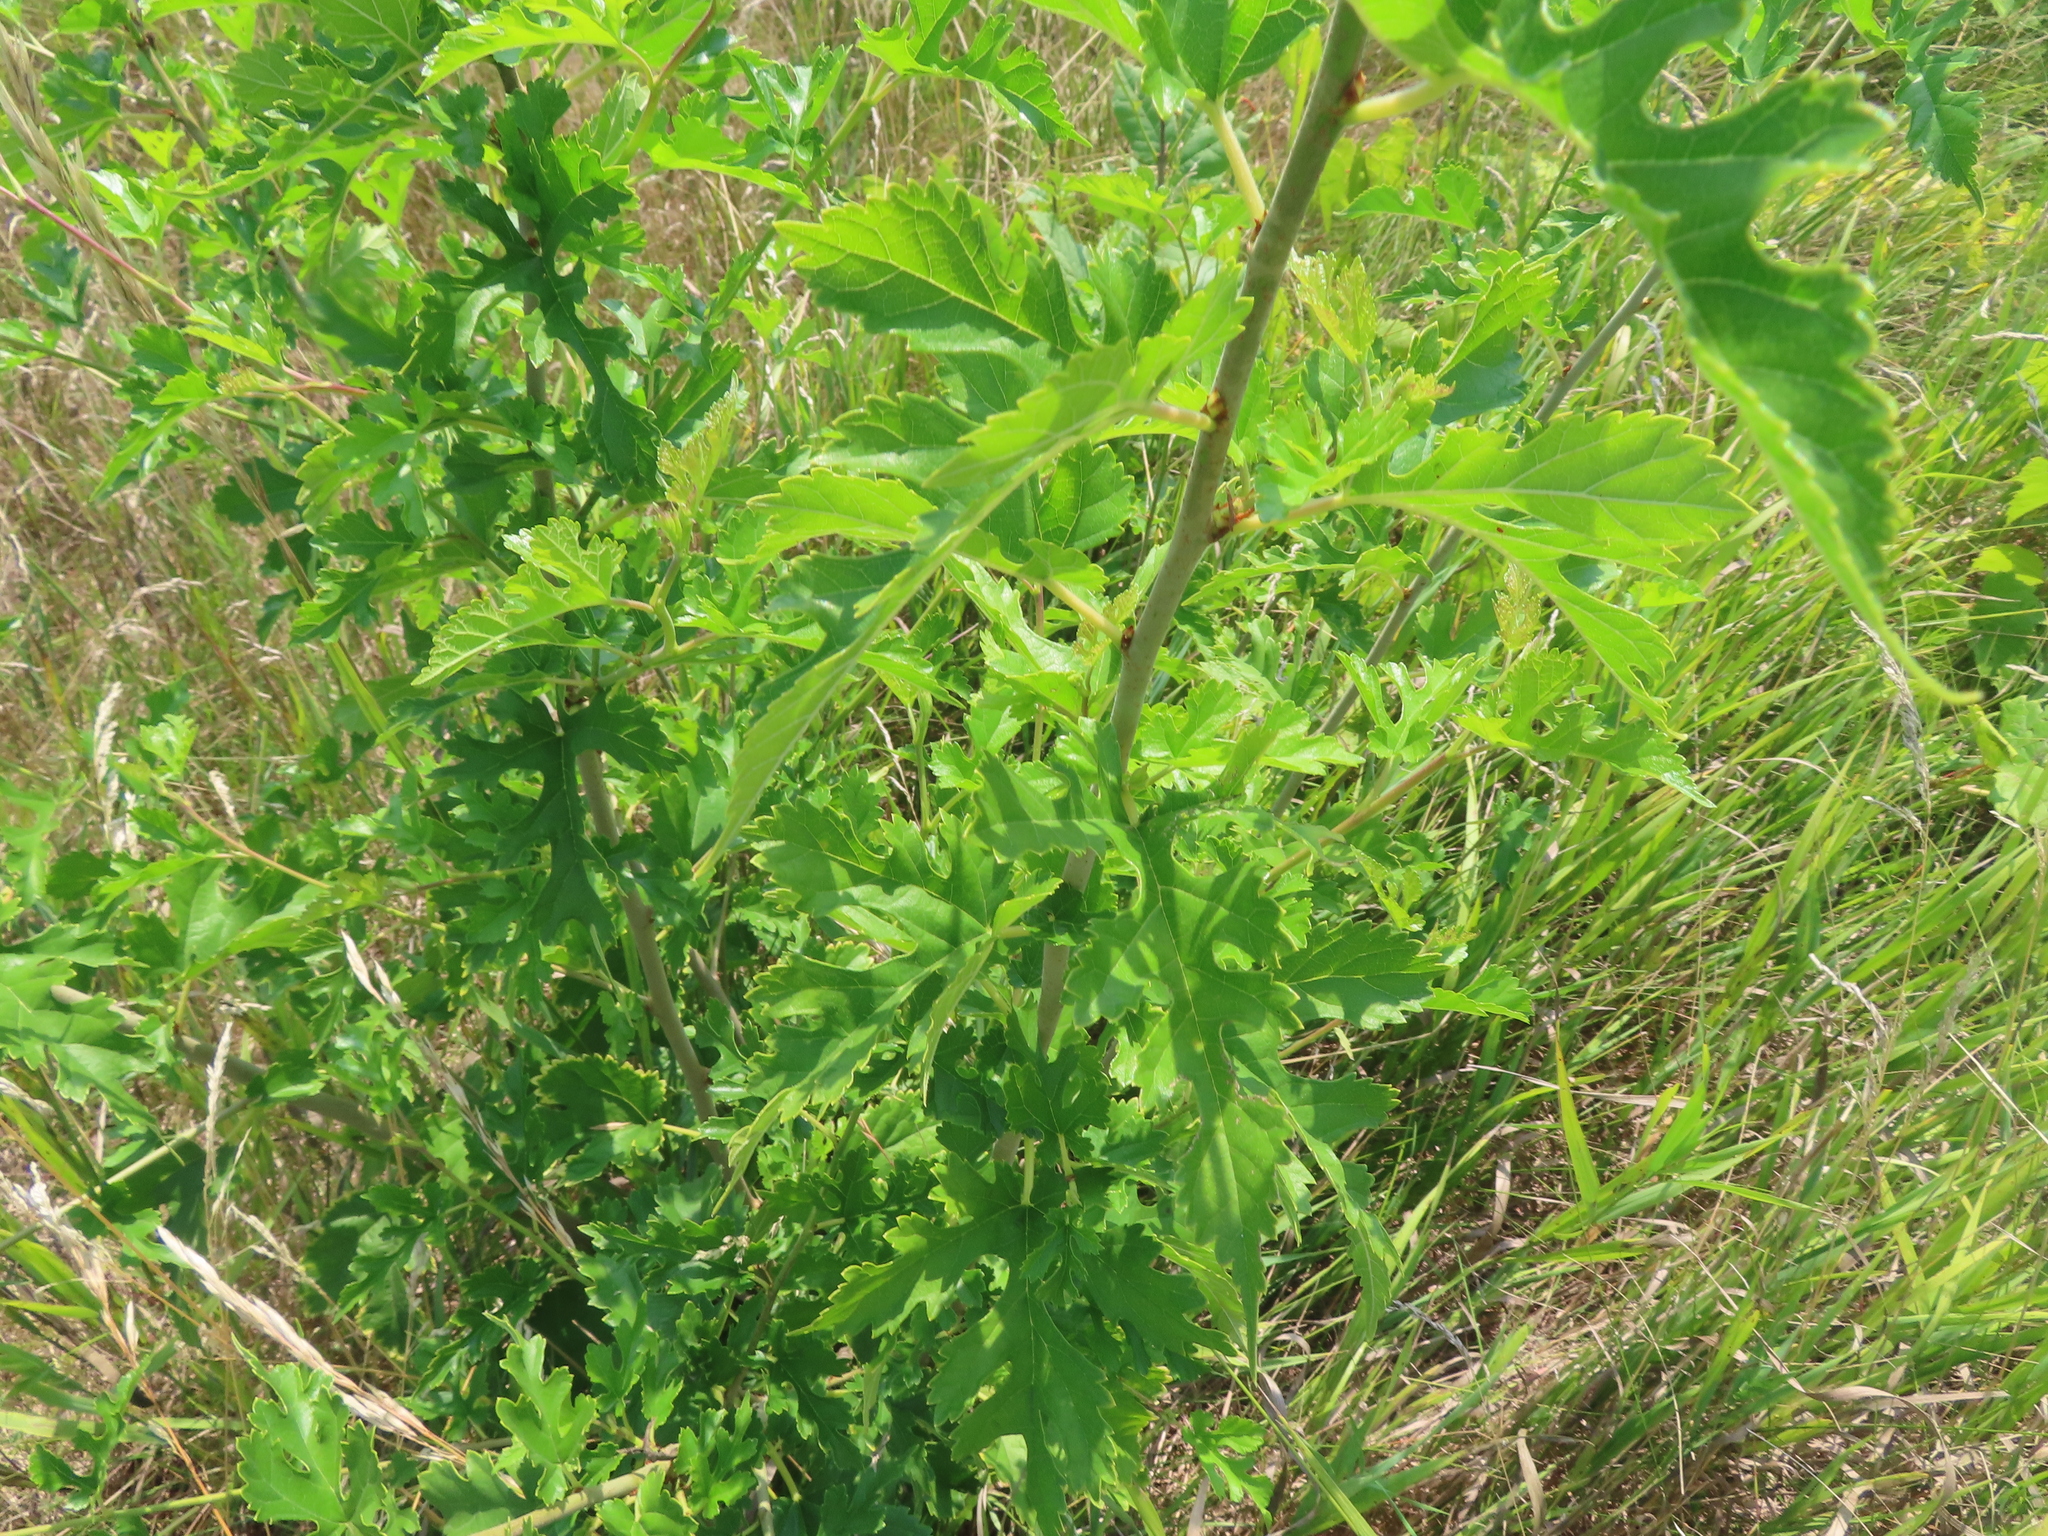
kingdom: Plantae
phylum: Tracheophyta
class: Magnoliopsida
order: Rosales
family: Moraceae
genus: Morus
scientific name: Morus alba
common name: White mulberry
